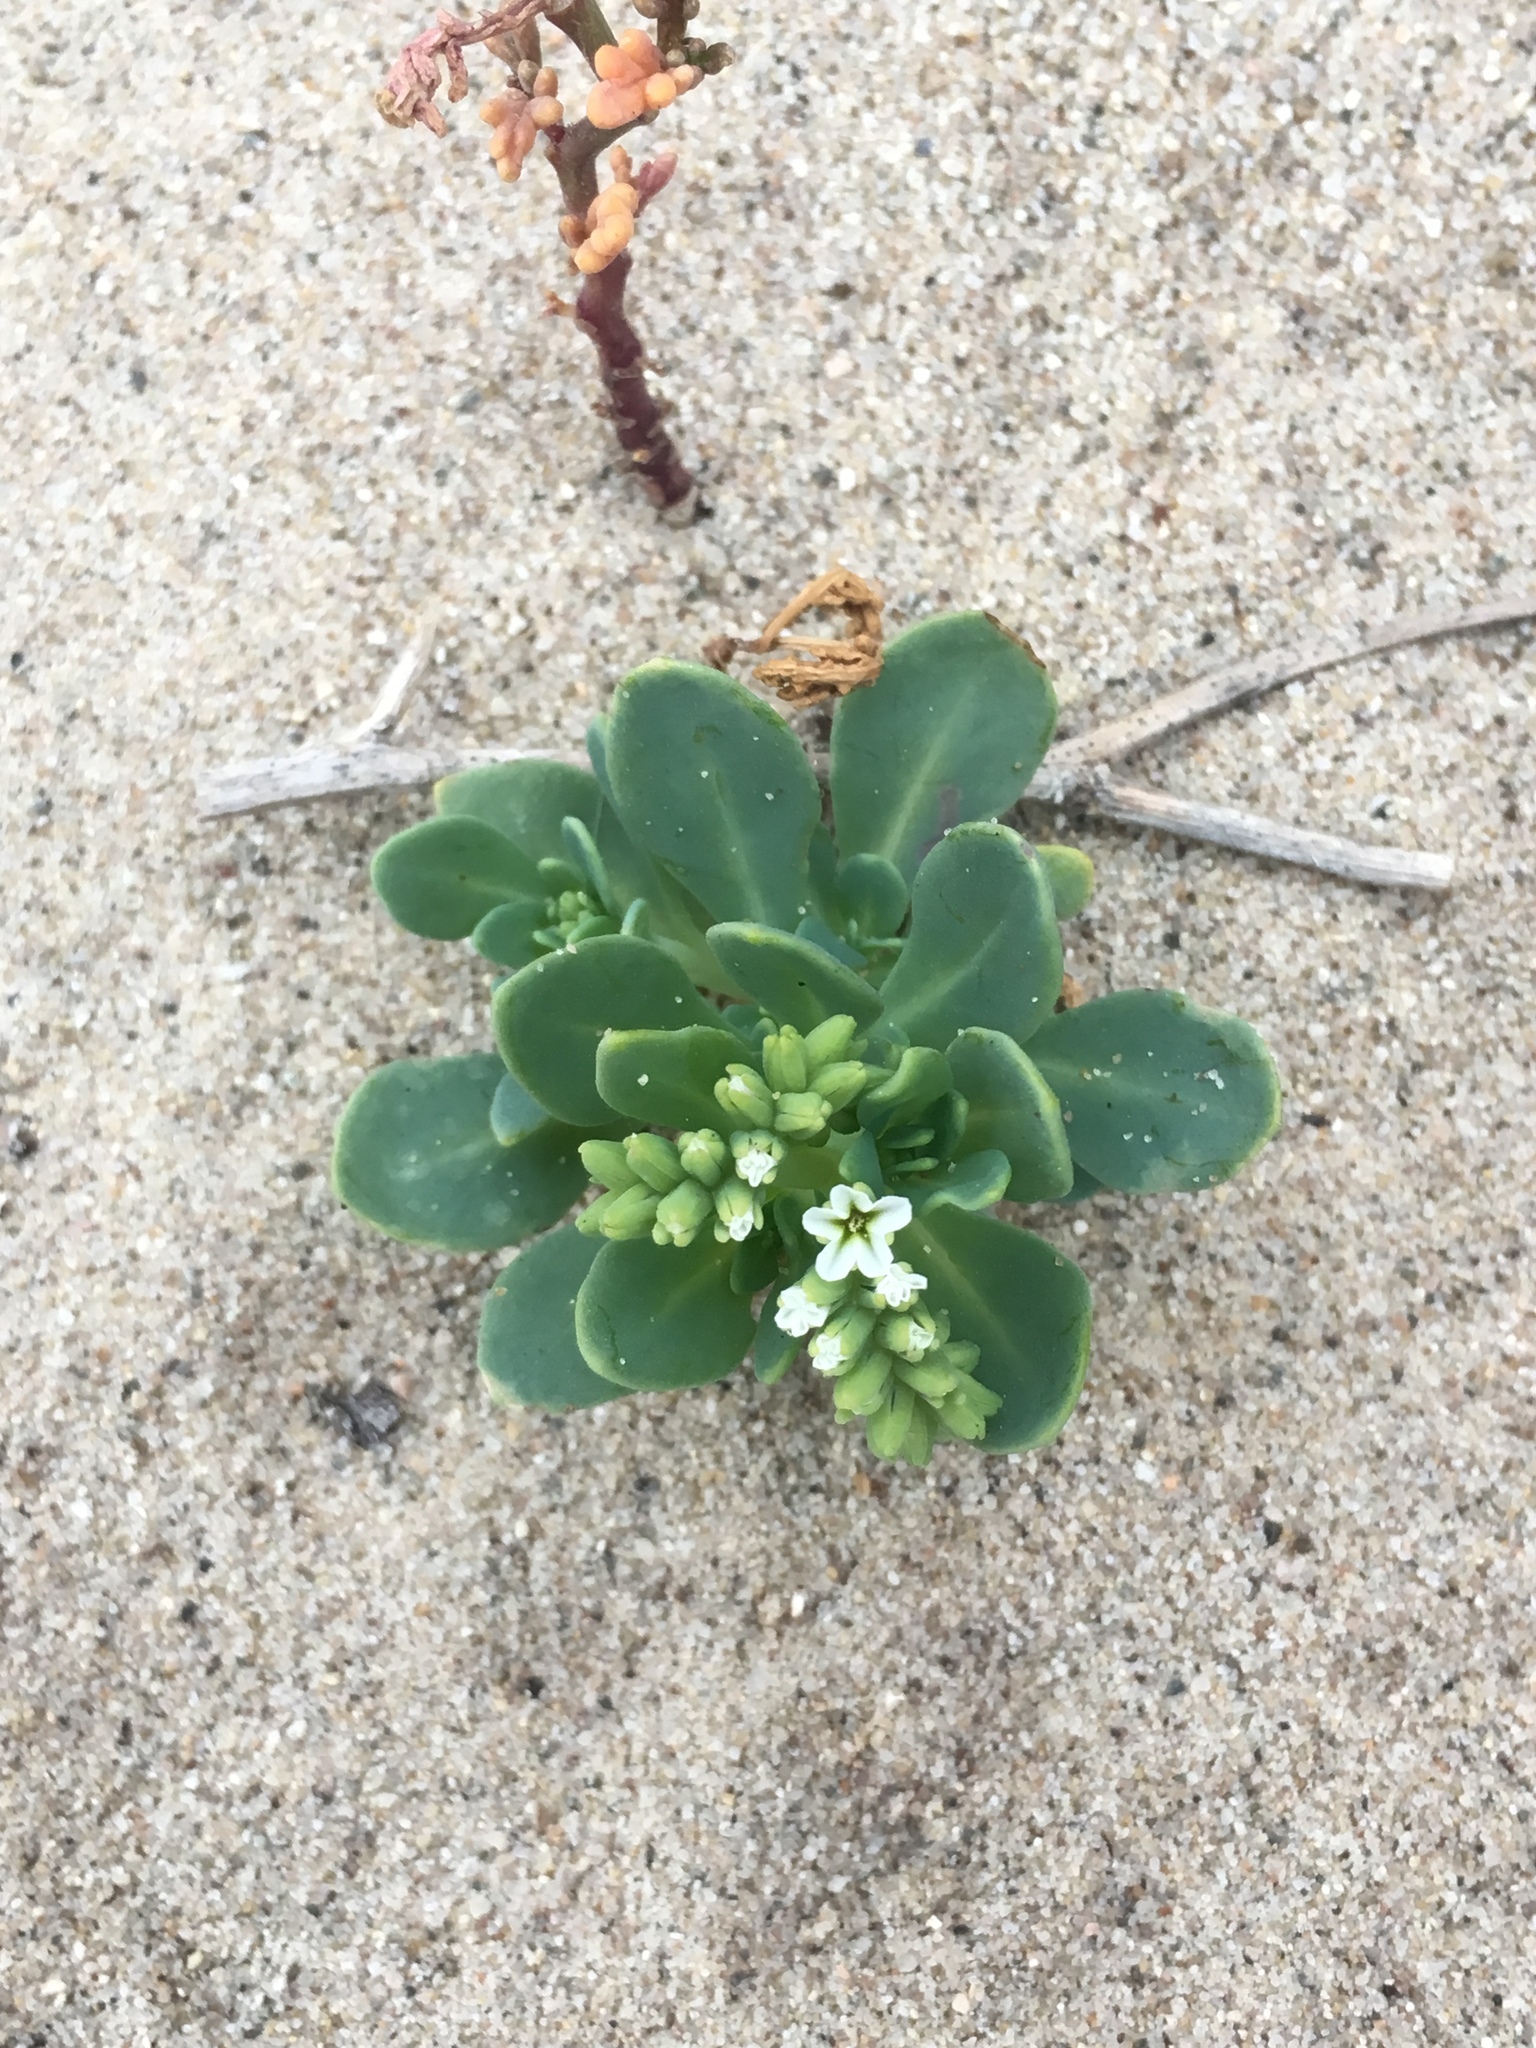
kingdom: Plantae
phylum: Tracheophyta
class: Magnoliopsida
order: Boraginales
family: Heliotropiaceae
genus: Heliotropium
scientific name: Heliotropium curassavicum
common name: Seaside heliotrope
